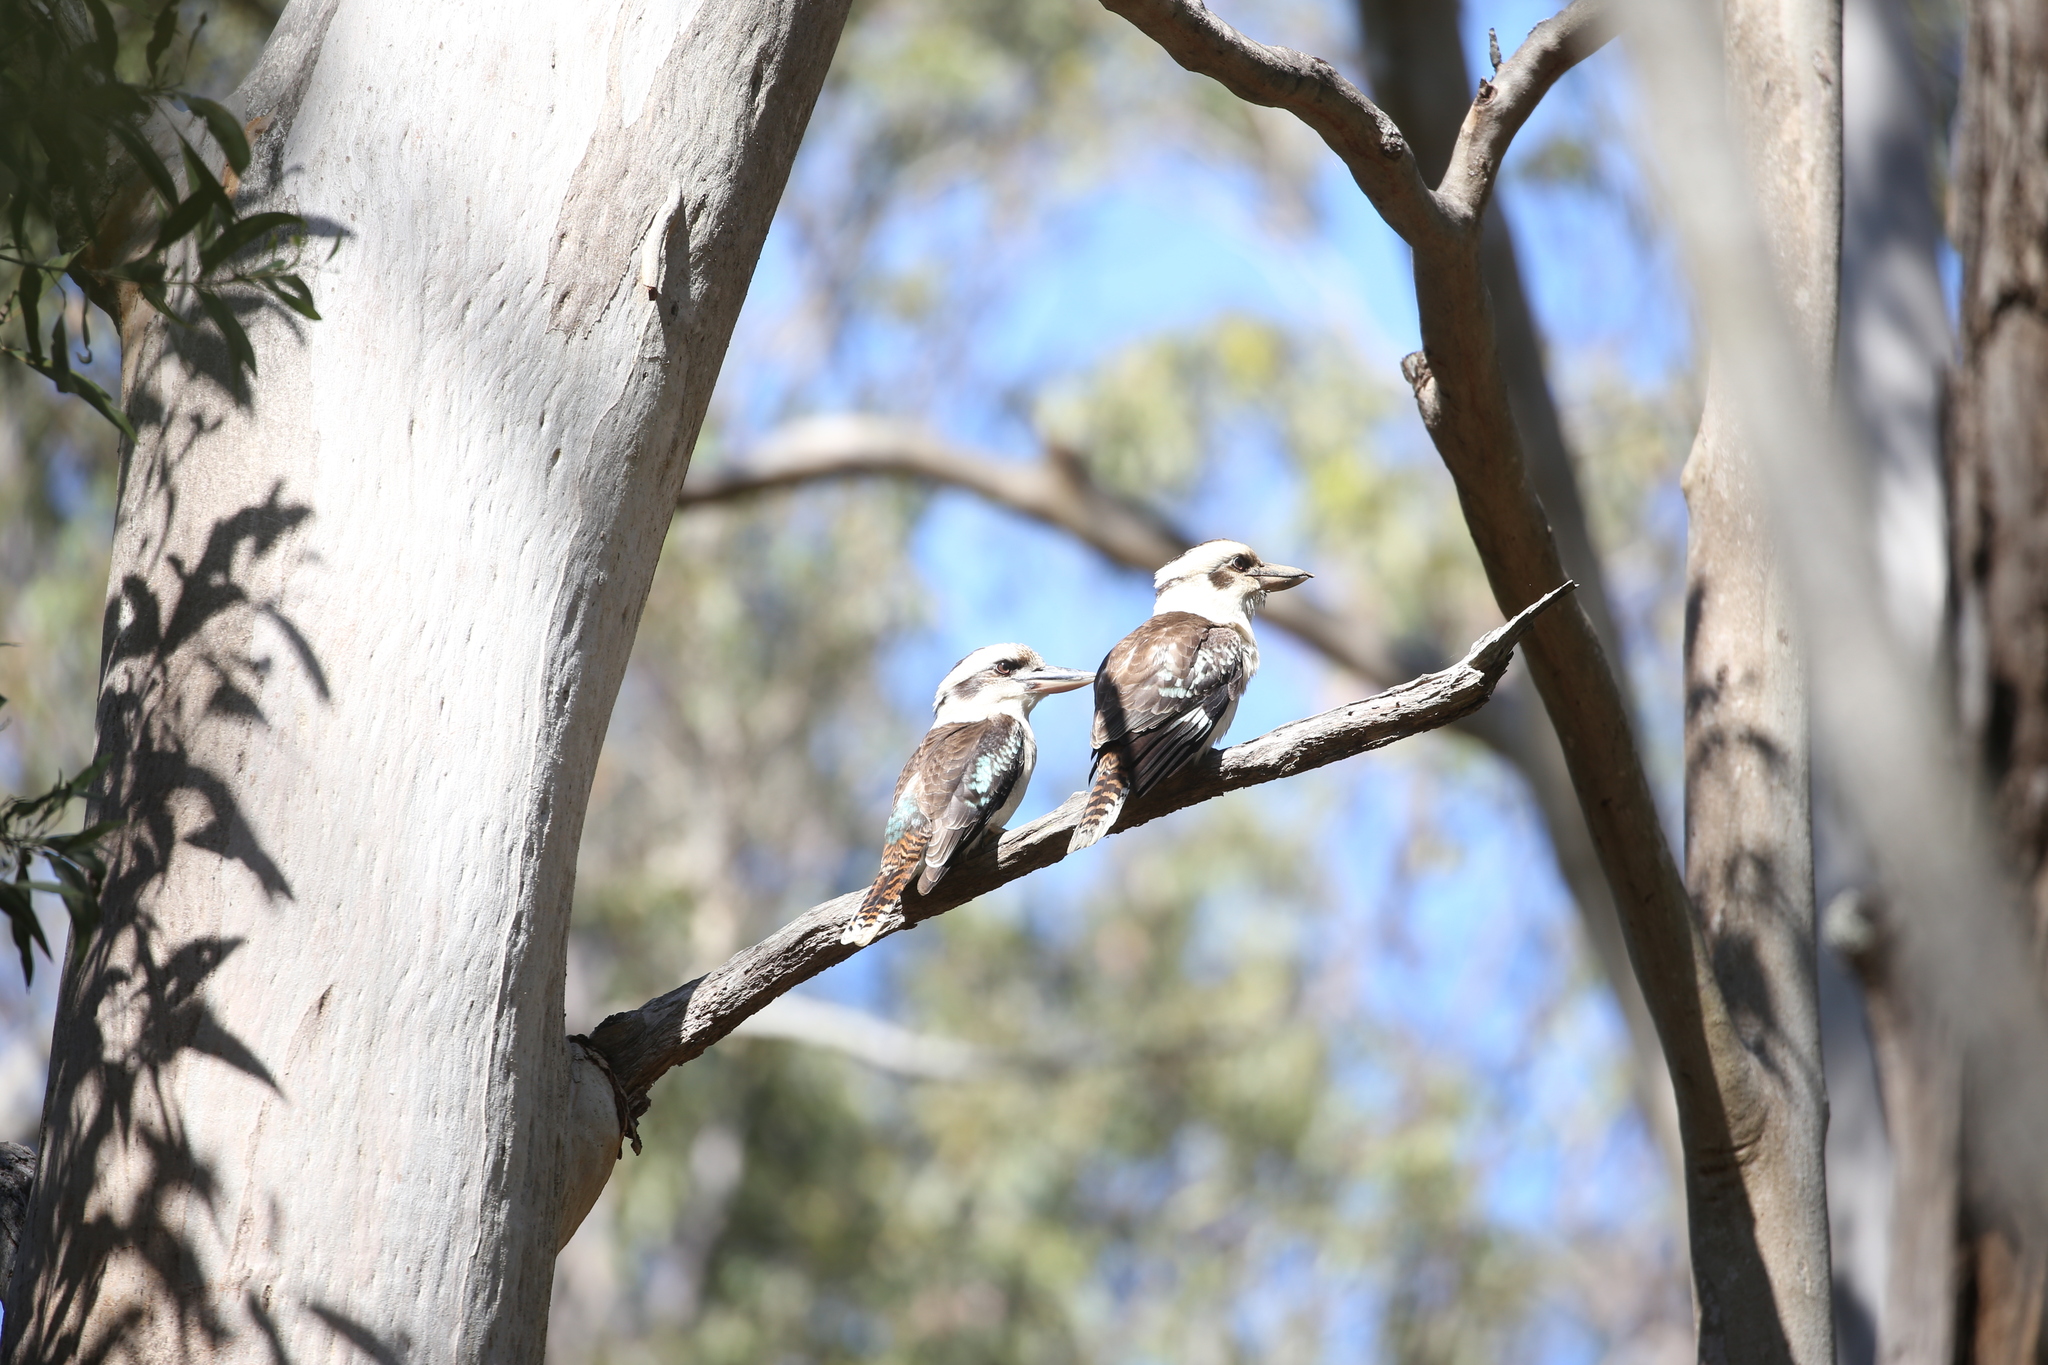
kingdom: Animalia
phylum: Chordata
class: Aves
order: Coraciiformes
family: Alcedinidae
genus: Dacelo
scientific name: Dacelo novaeguineae
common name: Laughing kookaburra
